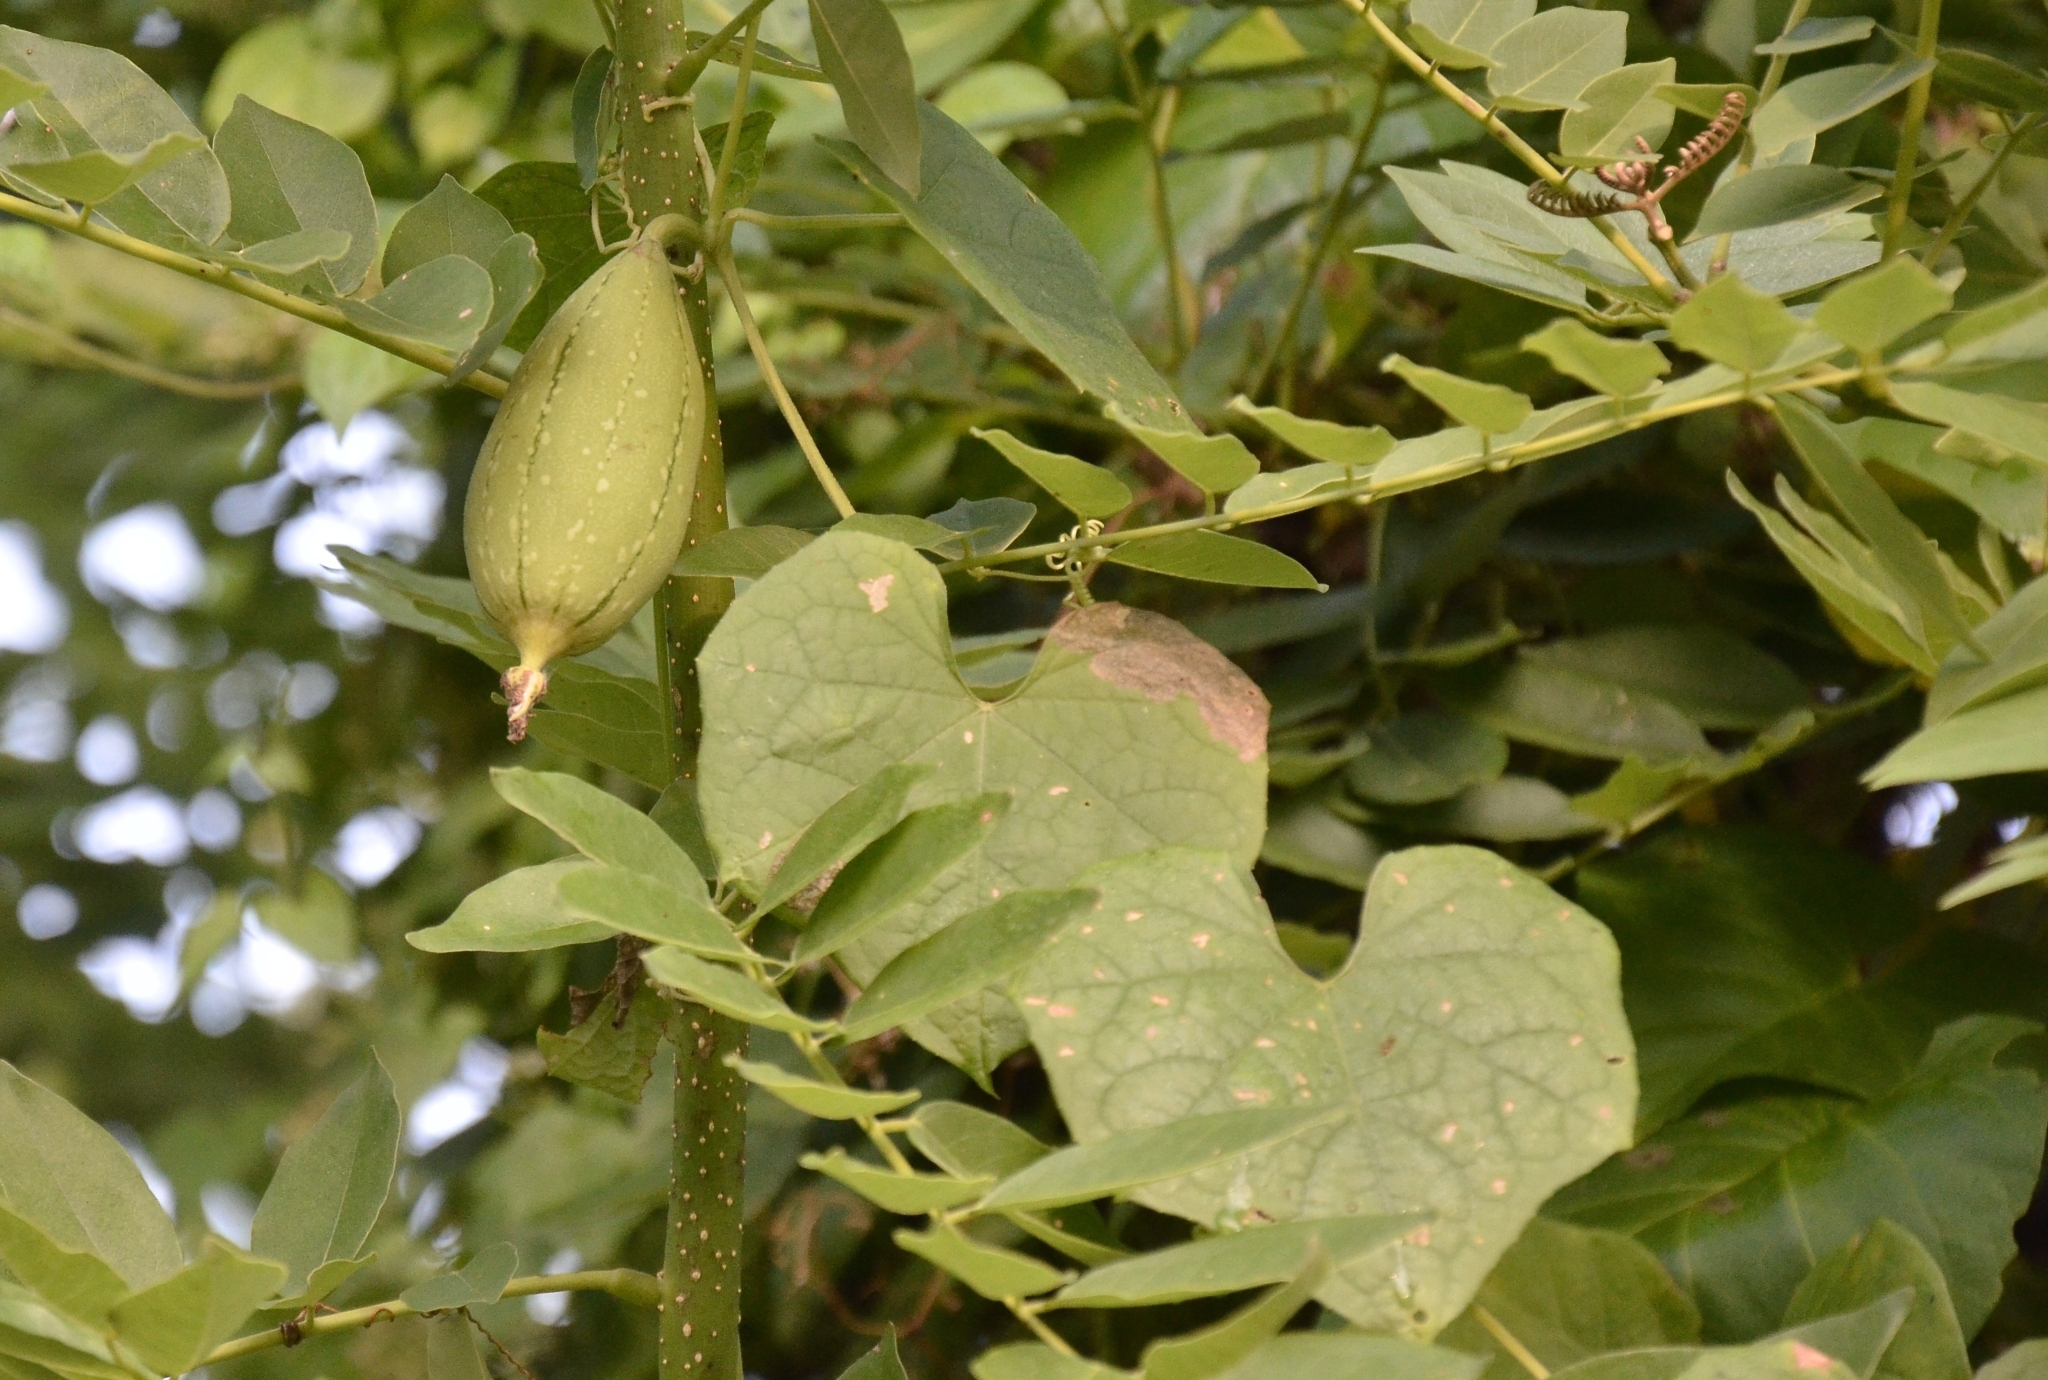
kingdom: Plantae
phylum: Tracheophyta
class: Magnoliopsida
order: Cucurbitales
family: Cucurbitaceae
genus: Luffa
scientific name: Luffa aegyptiaca
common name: Sponge gourd
